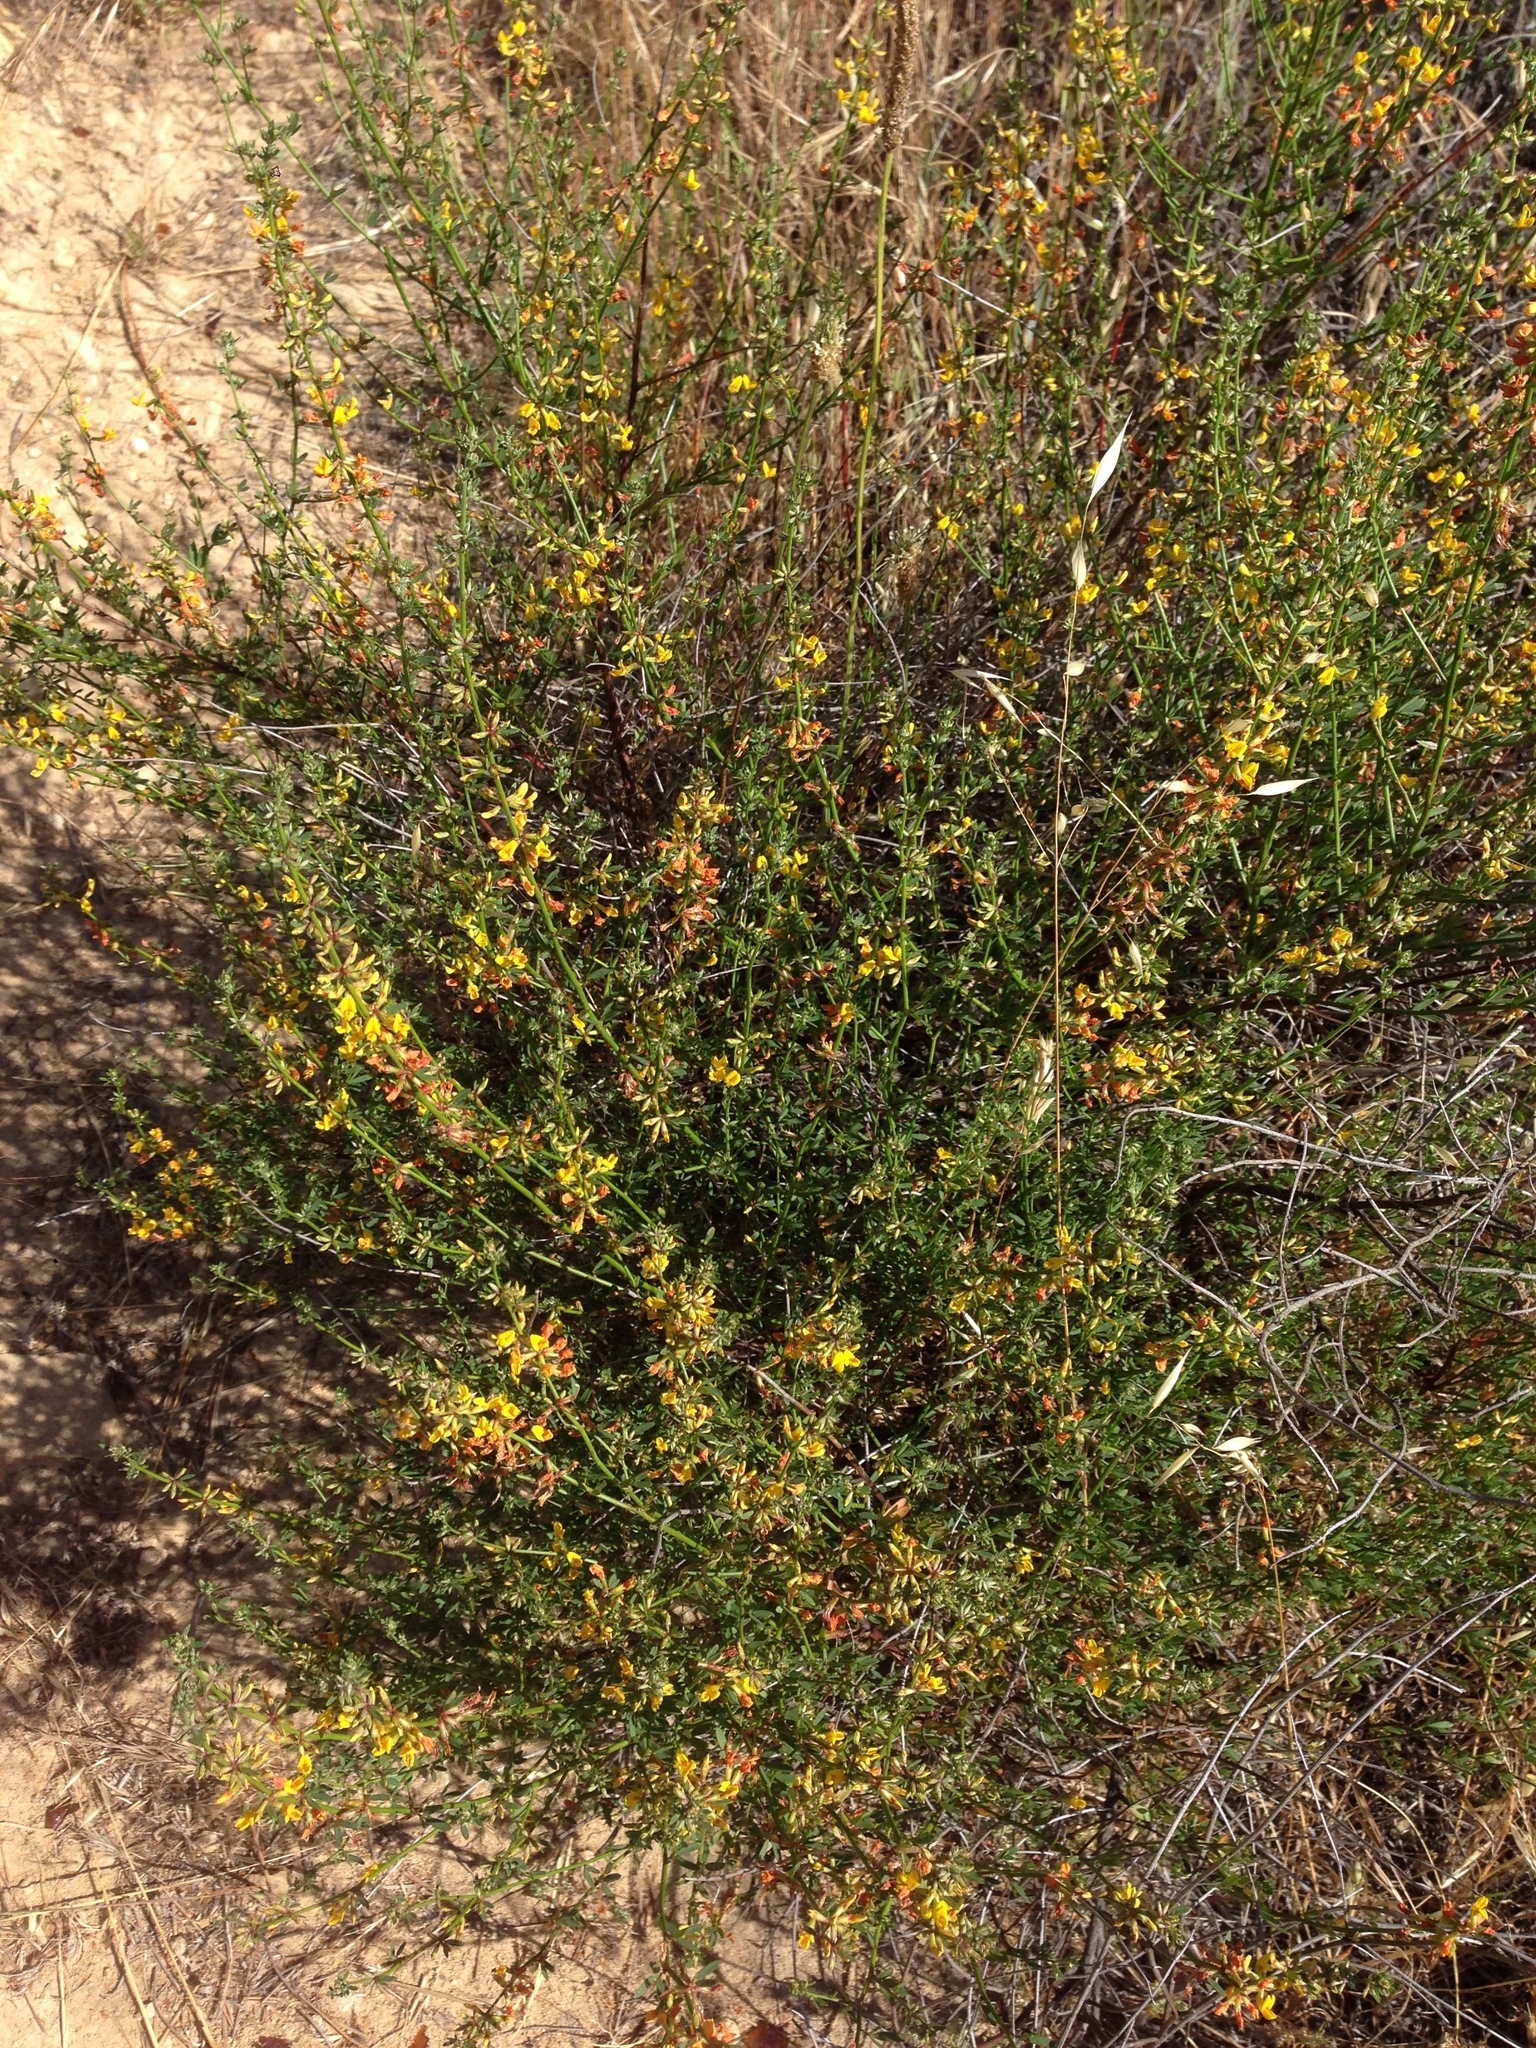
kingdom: Plantae
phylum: Tracheophyta
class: Magnoliopsida
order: Fabales
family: Fabaceae
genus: Acmispon
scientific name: Acmispon glaber
